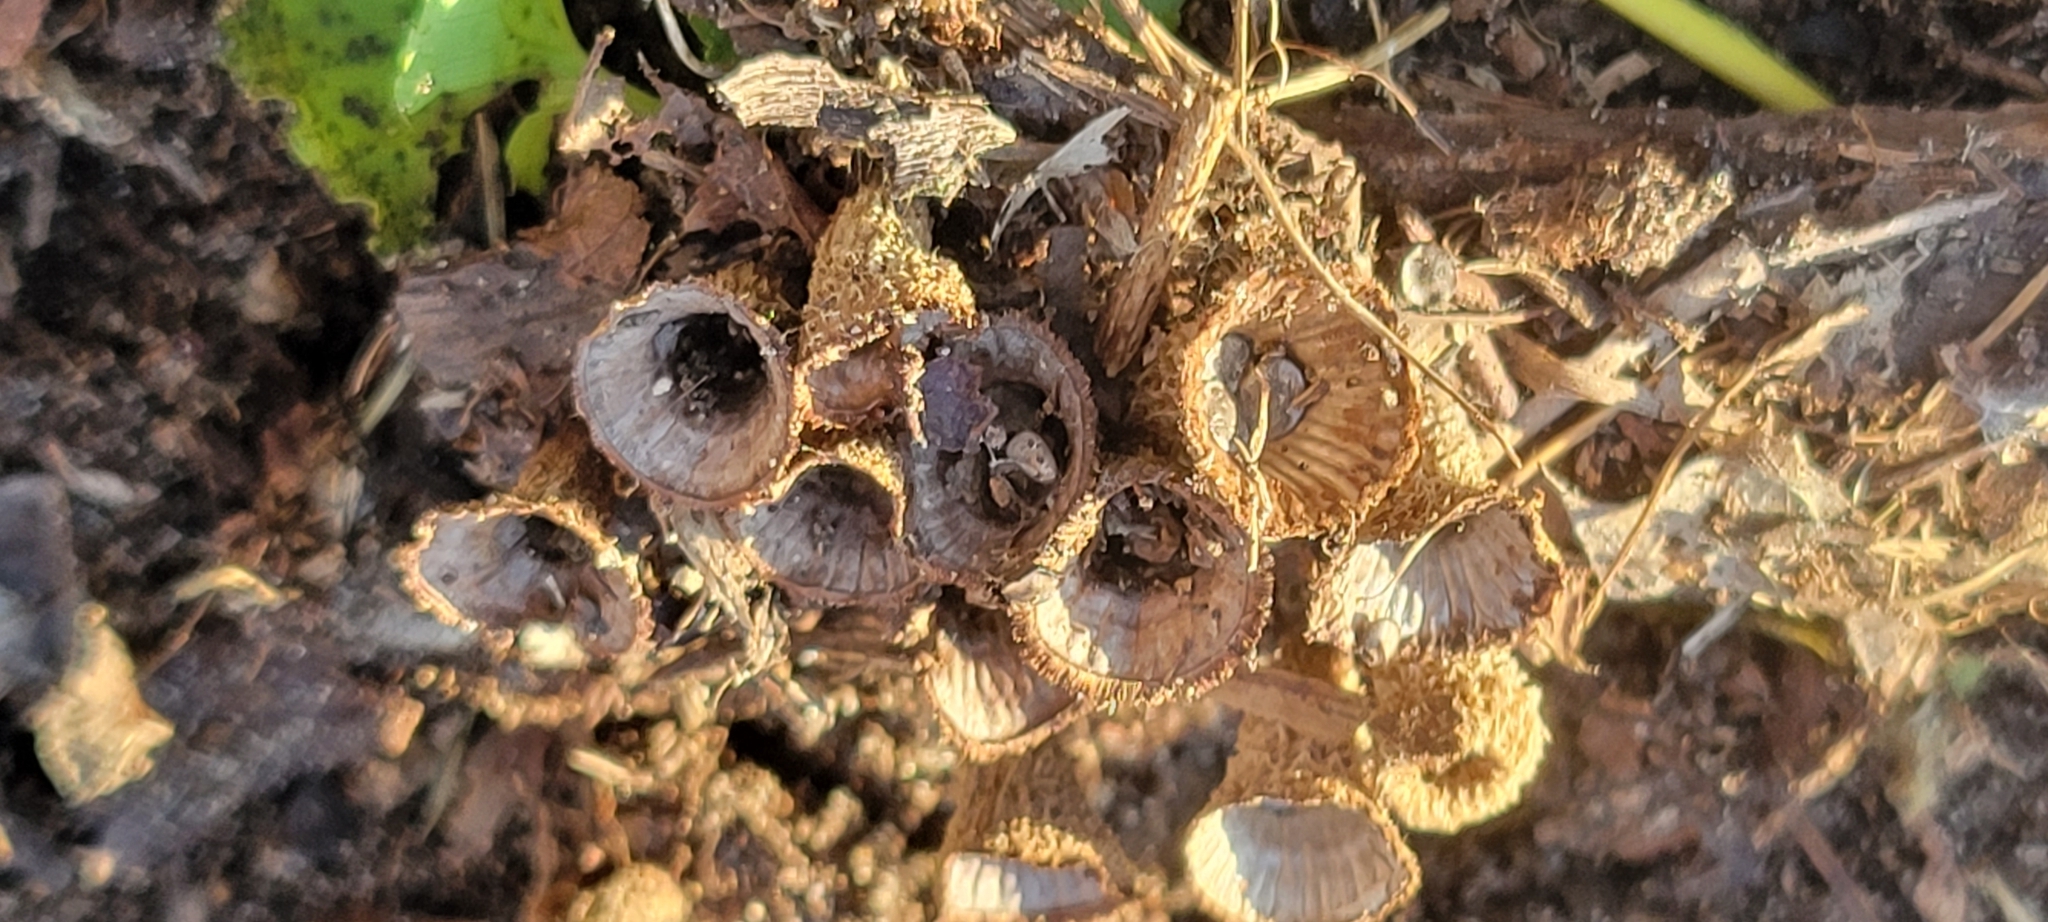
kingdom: Fungi
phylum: Basidiomycota
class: Agaricomycetes
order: Agaricales
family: Agaricaceae
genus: Cyathus
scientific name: Cyathus striatus
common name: Fluted bird's nest
